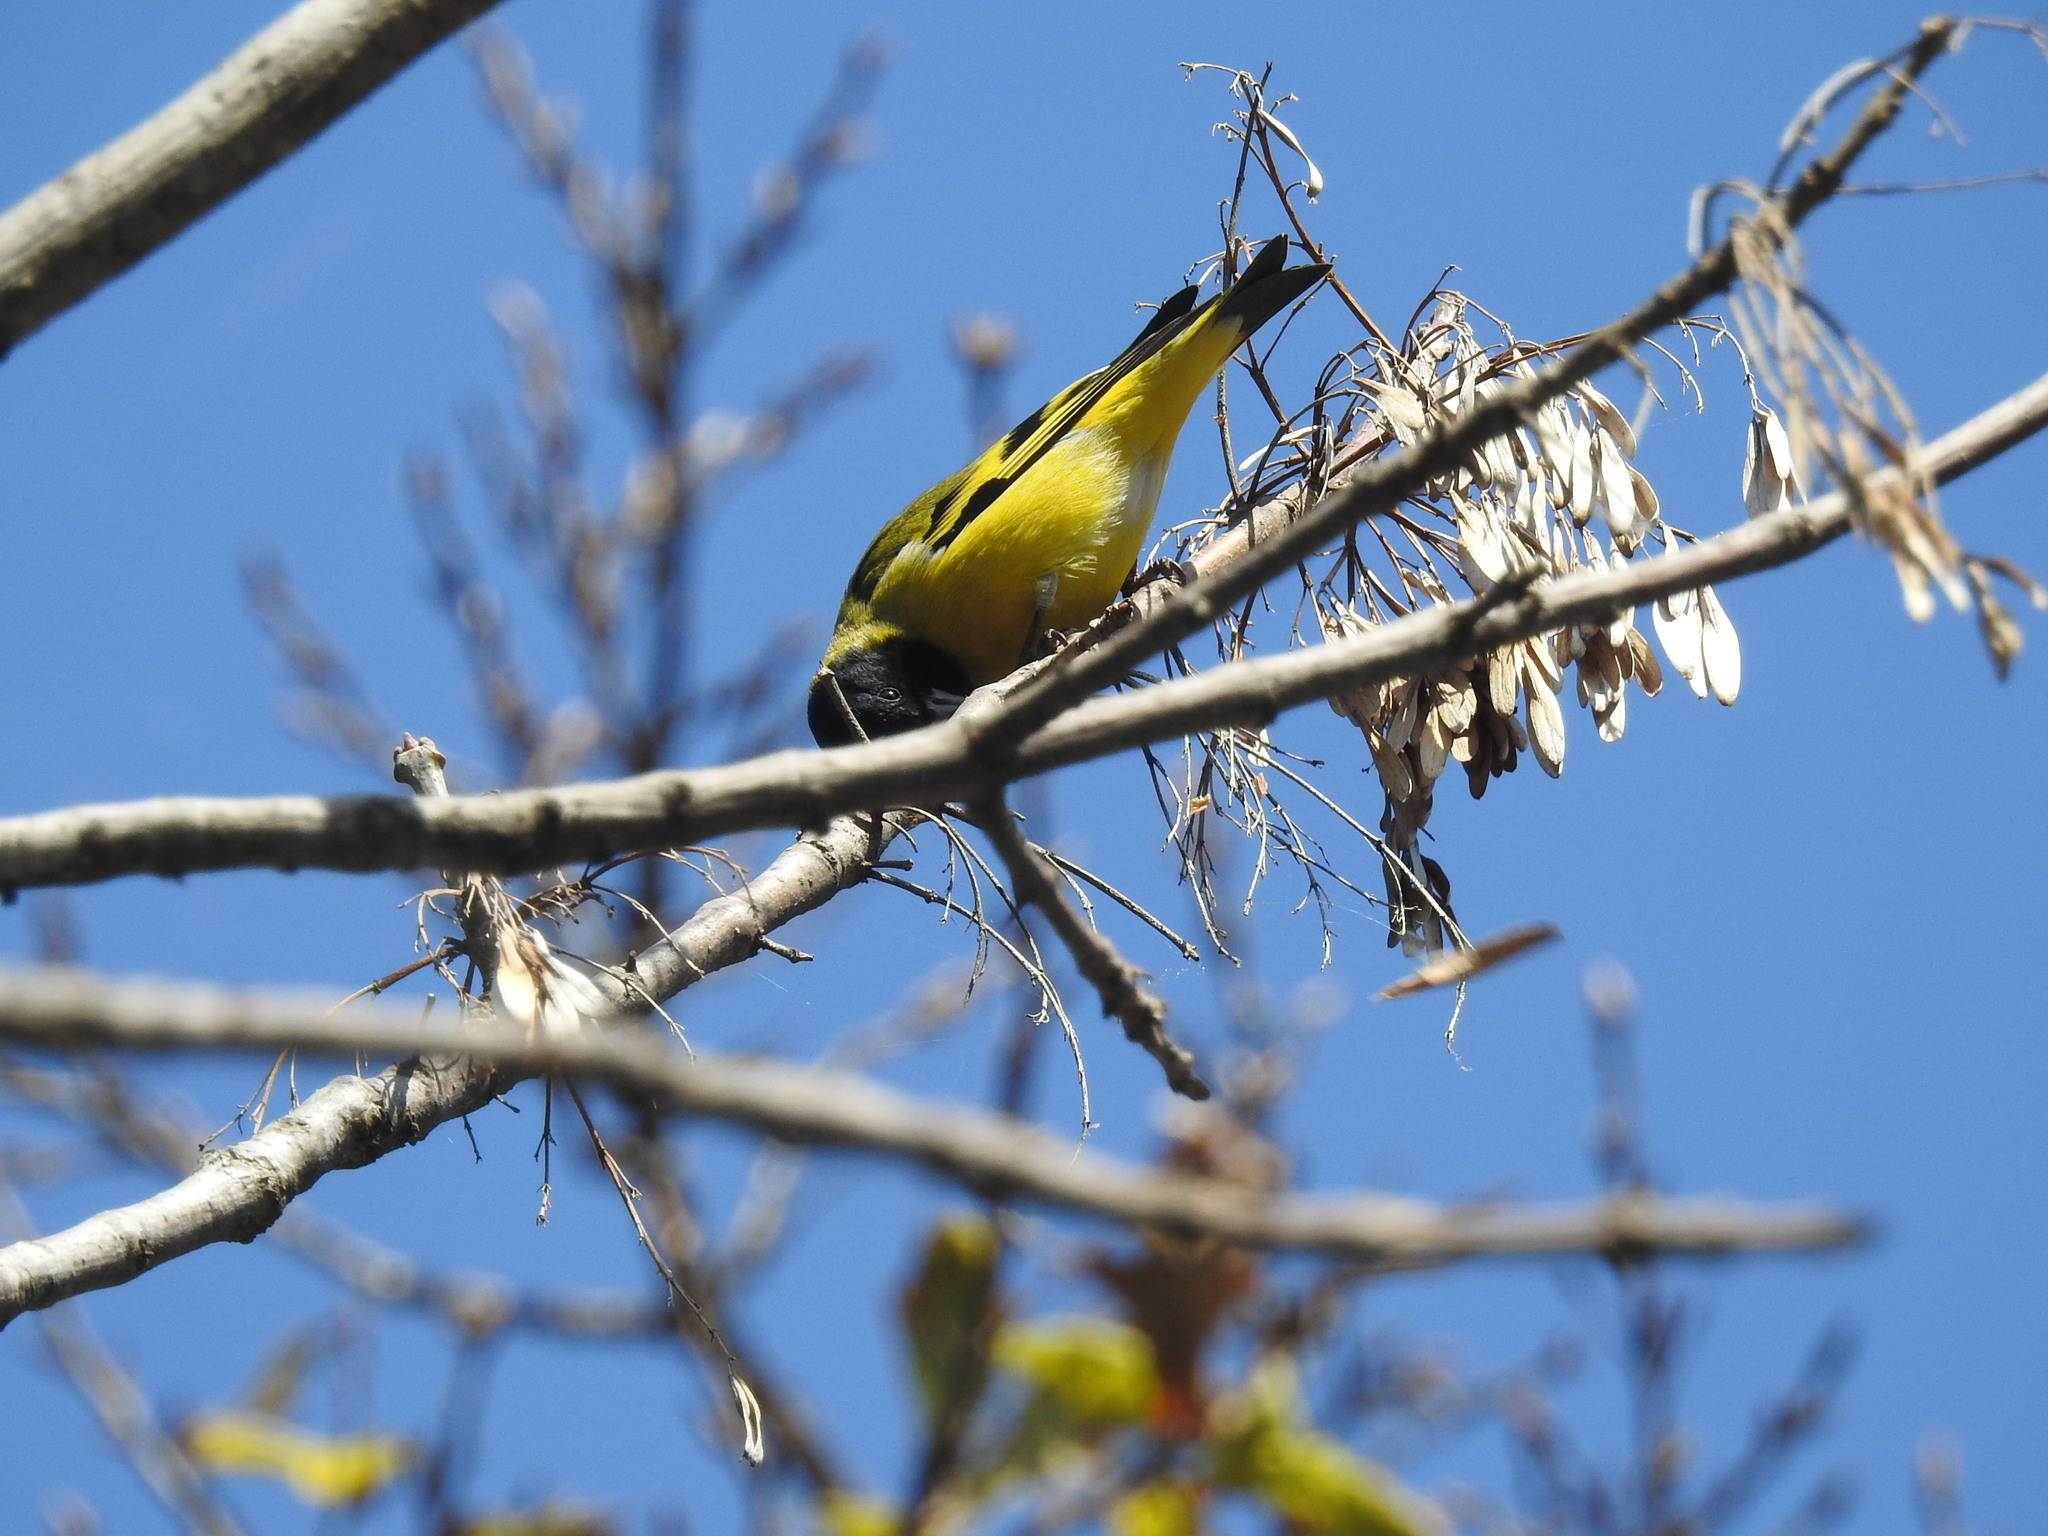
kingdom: Animalia
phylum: Chordata
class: Aves
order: Passeriformes
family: Fringillidae
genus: Spinus
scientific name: Spinus magellanicus
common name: Hooded siskin
